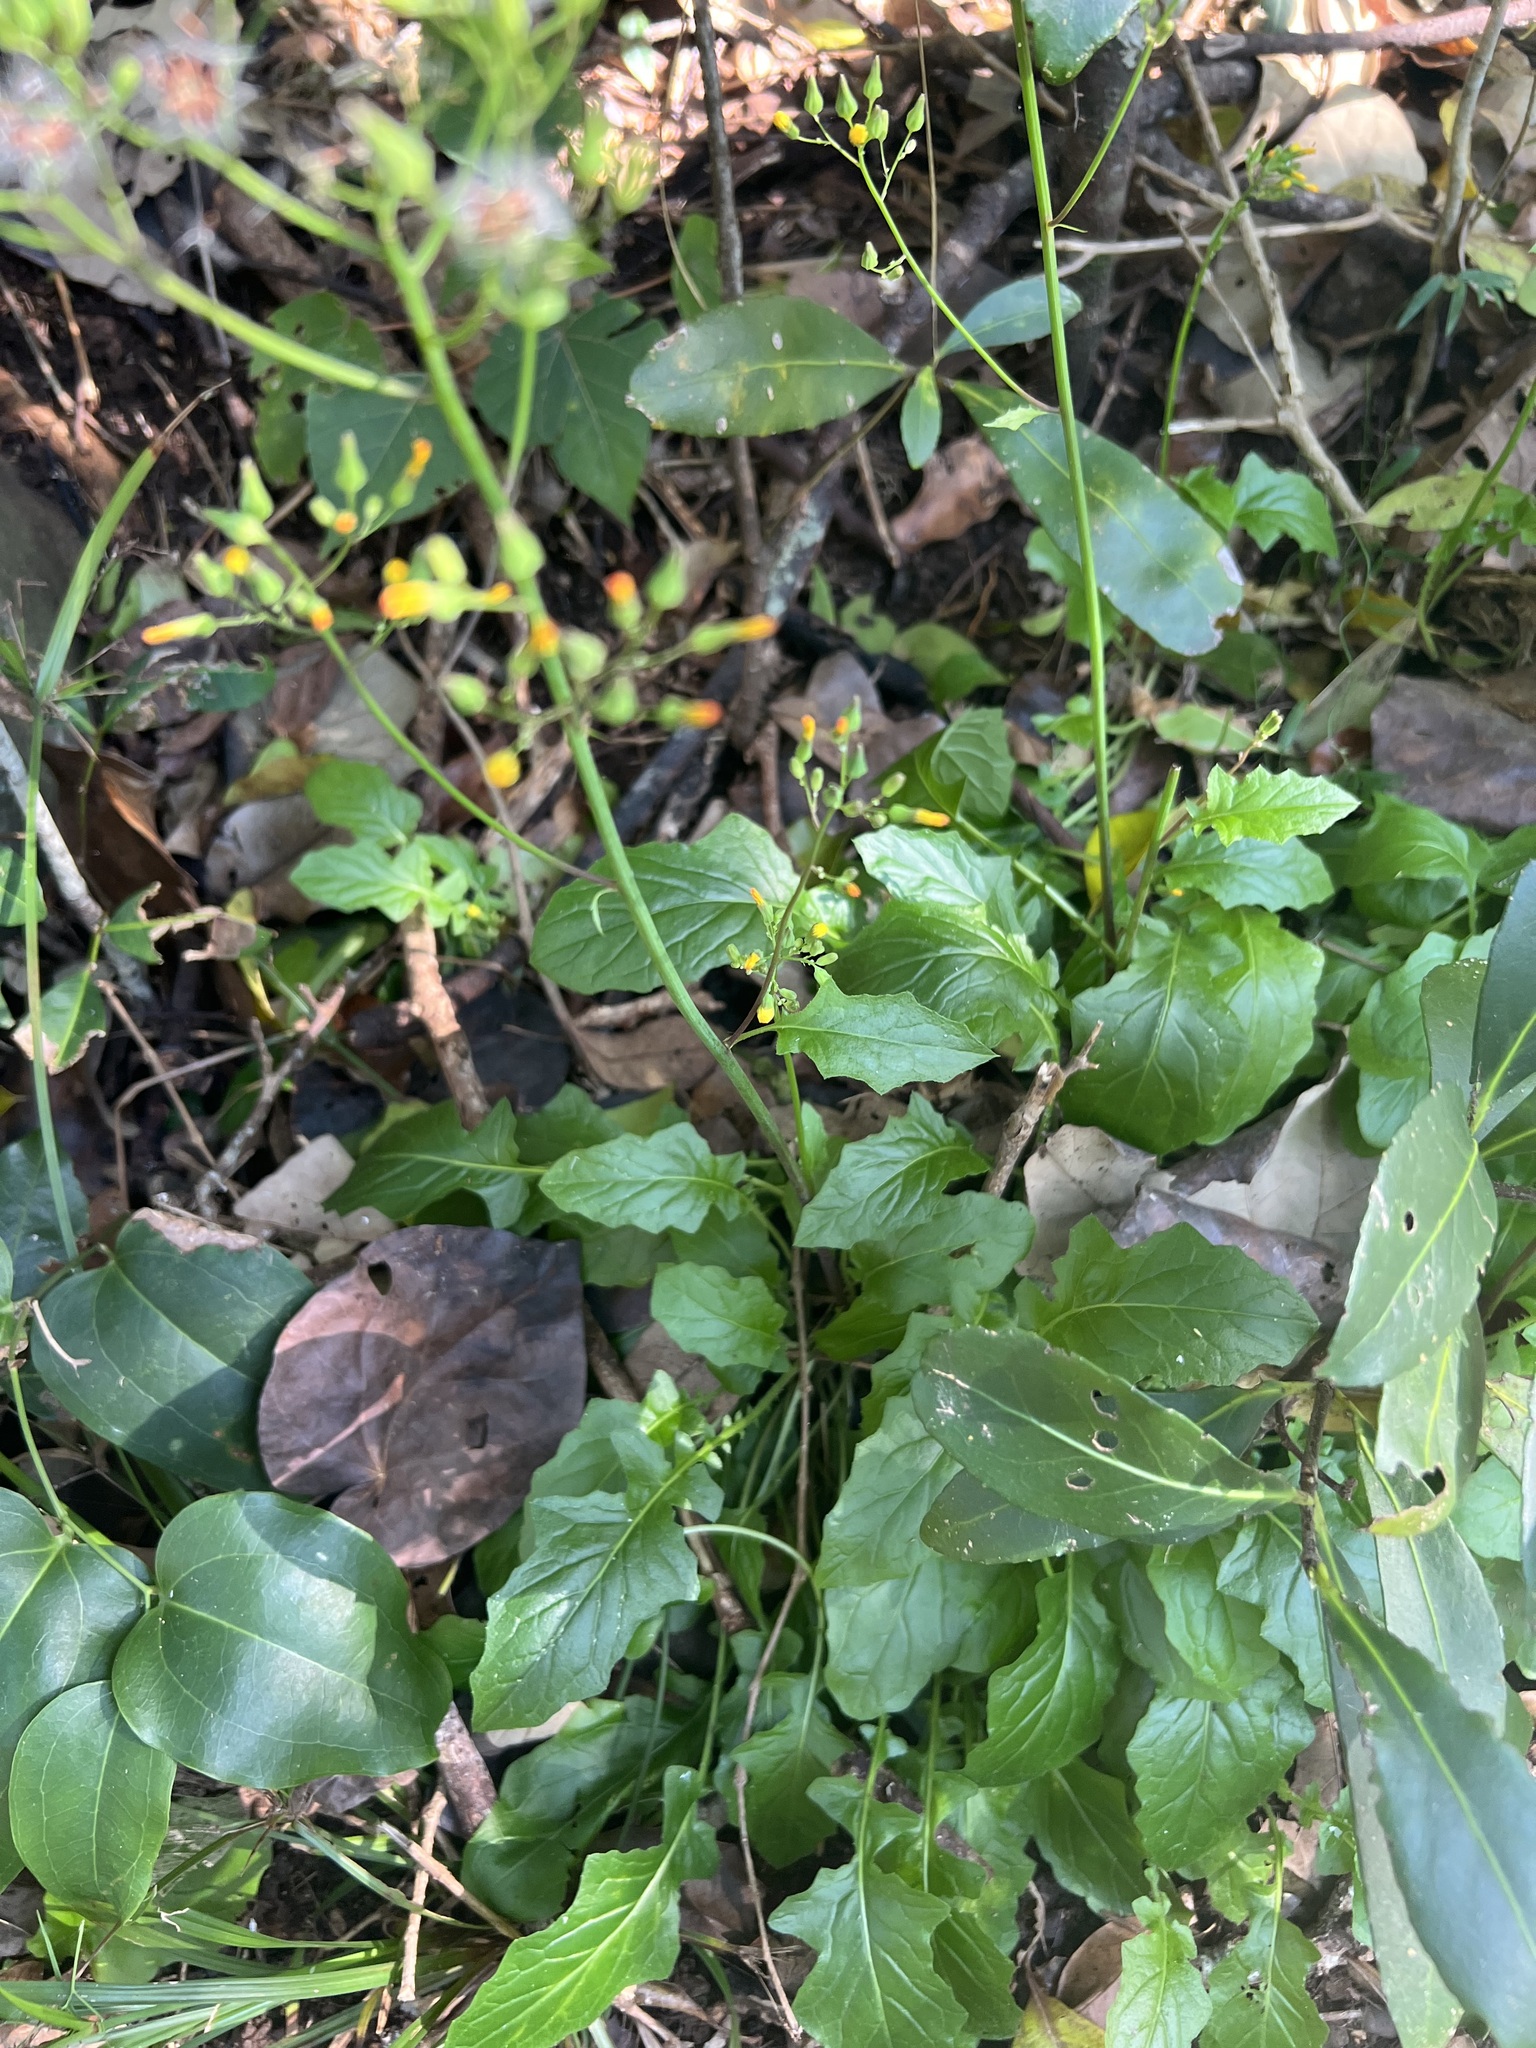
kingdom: Plantae
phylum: Tracheophyta
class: Magnoliopsida
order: Asterales
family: Asteraceae
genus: Youngia
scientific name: Youngia japonica
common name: Oriental false hawksbeard
